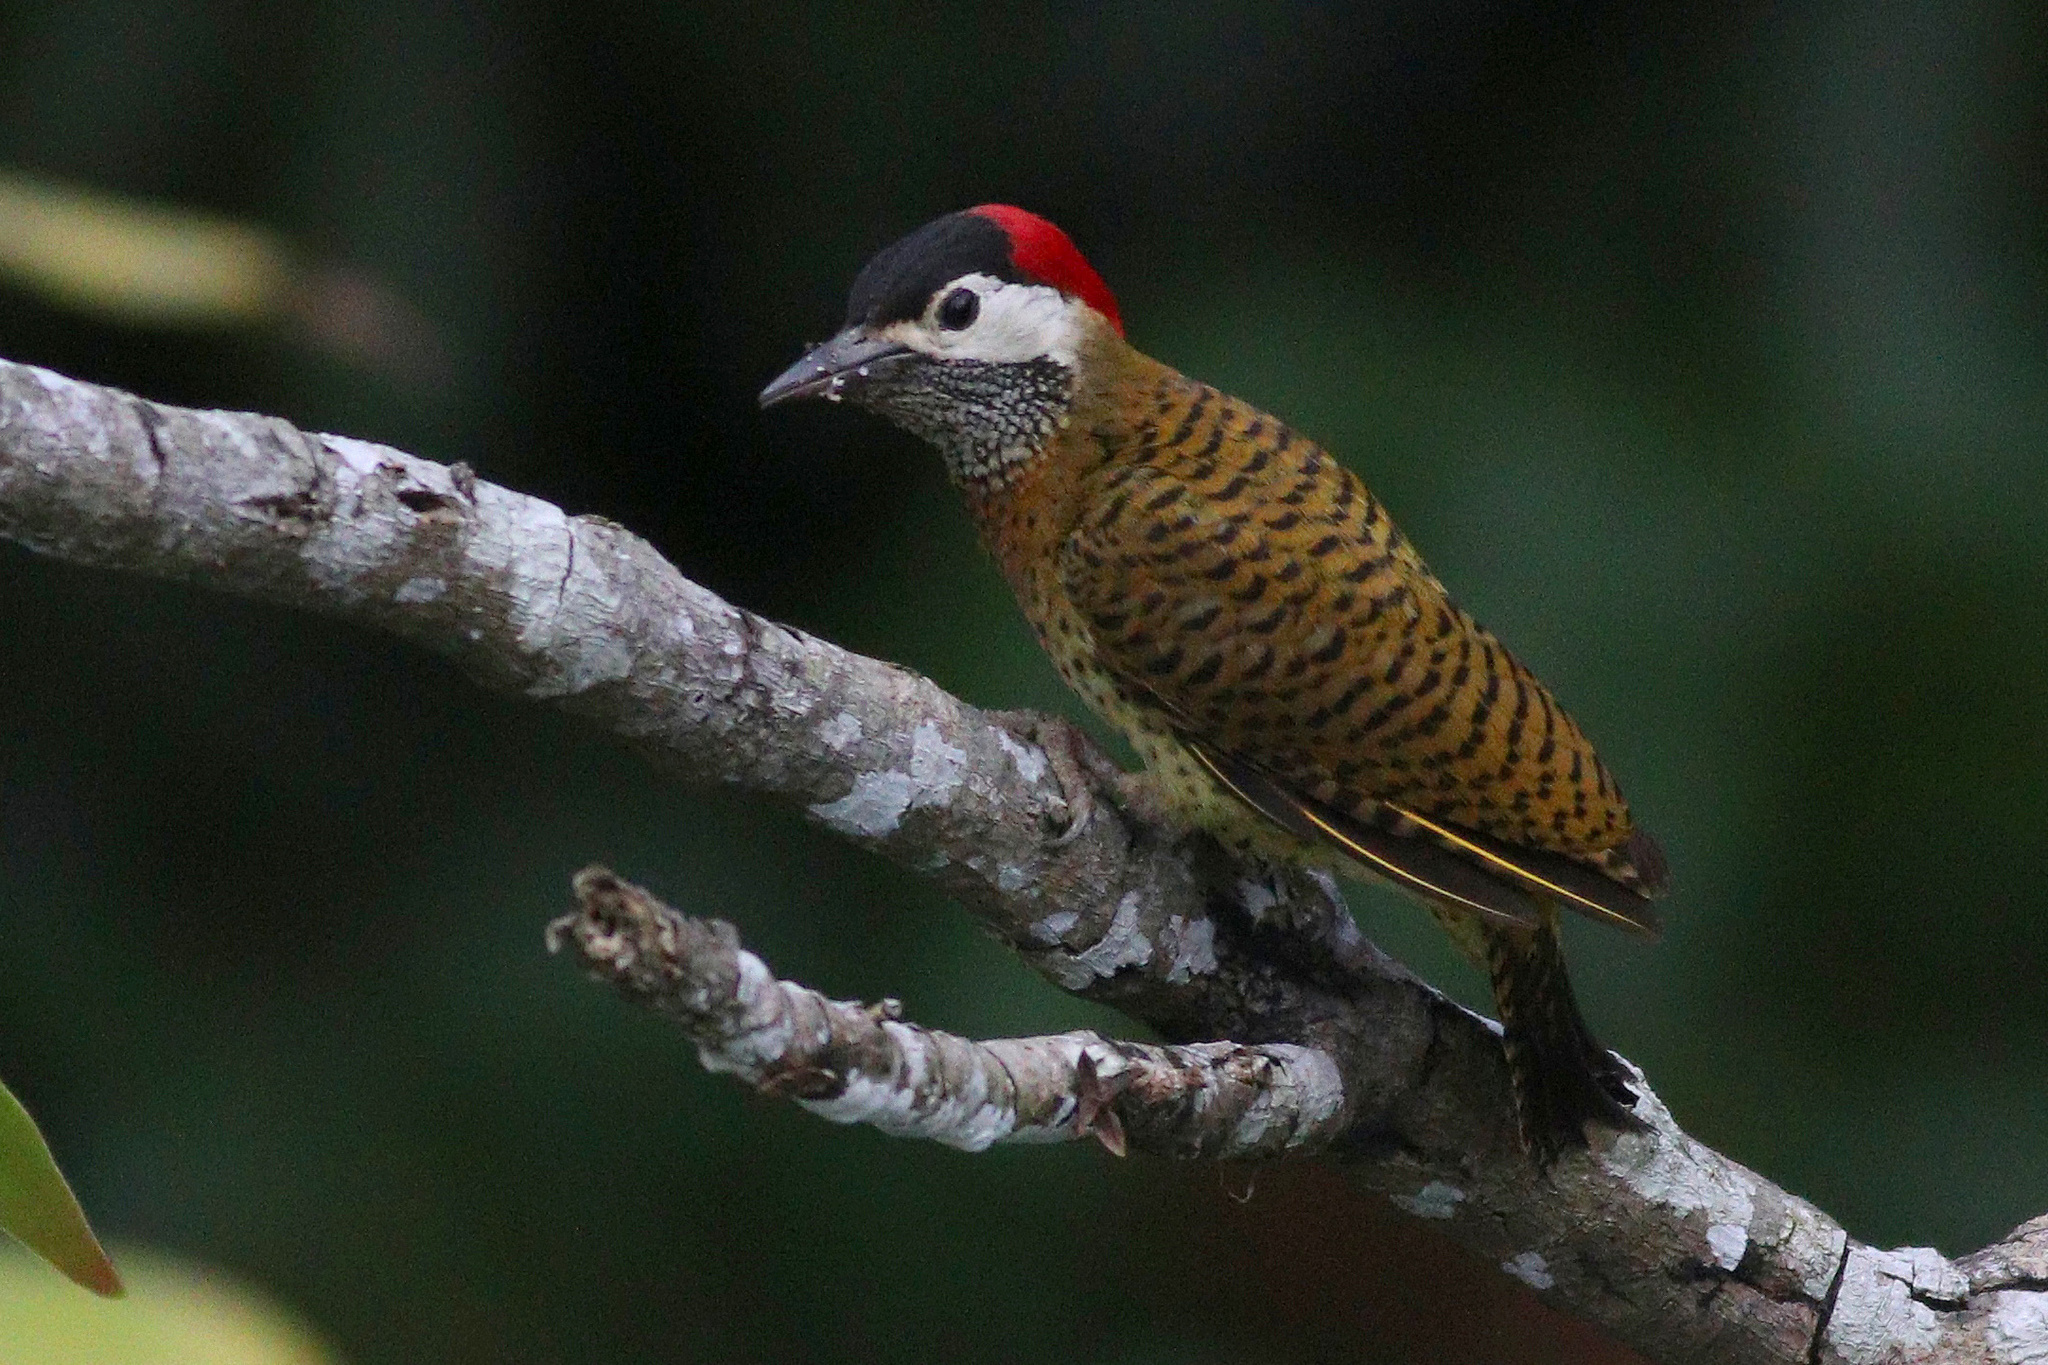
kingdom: Animalia
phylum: Chordata
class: Aves
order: Piciformes
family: Picidae
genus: Colaptes
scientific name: Colaptes punctigula
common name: Spot-breasted woodpecker
